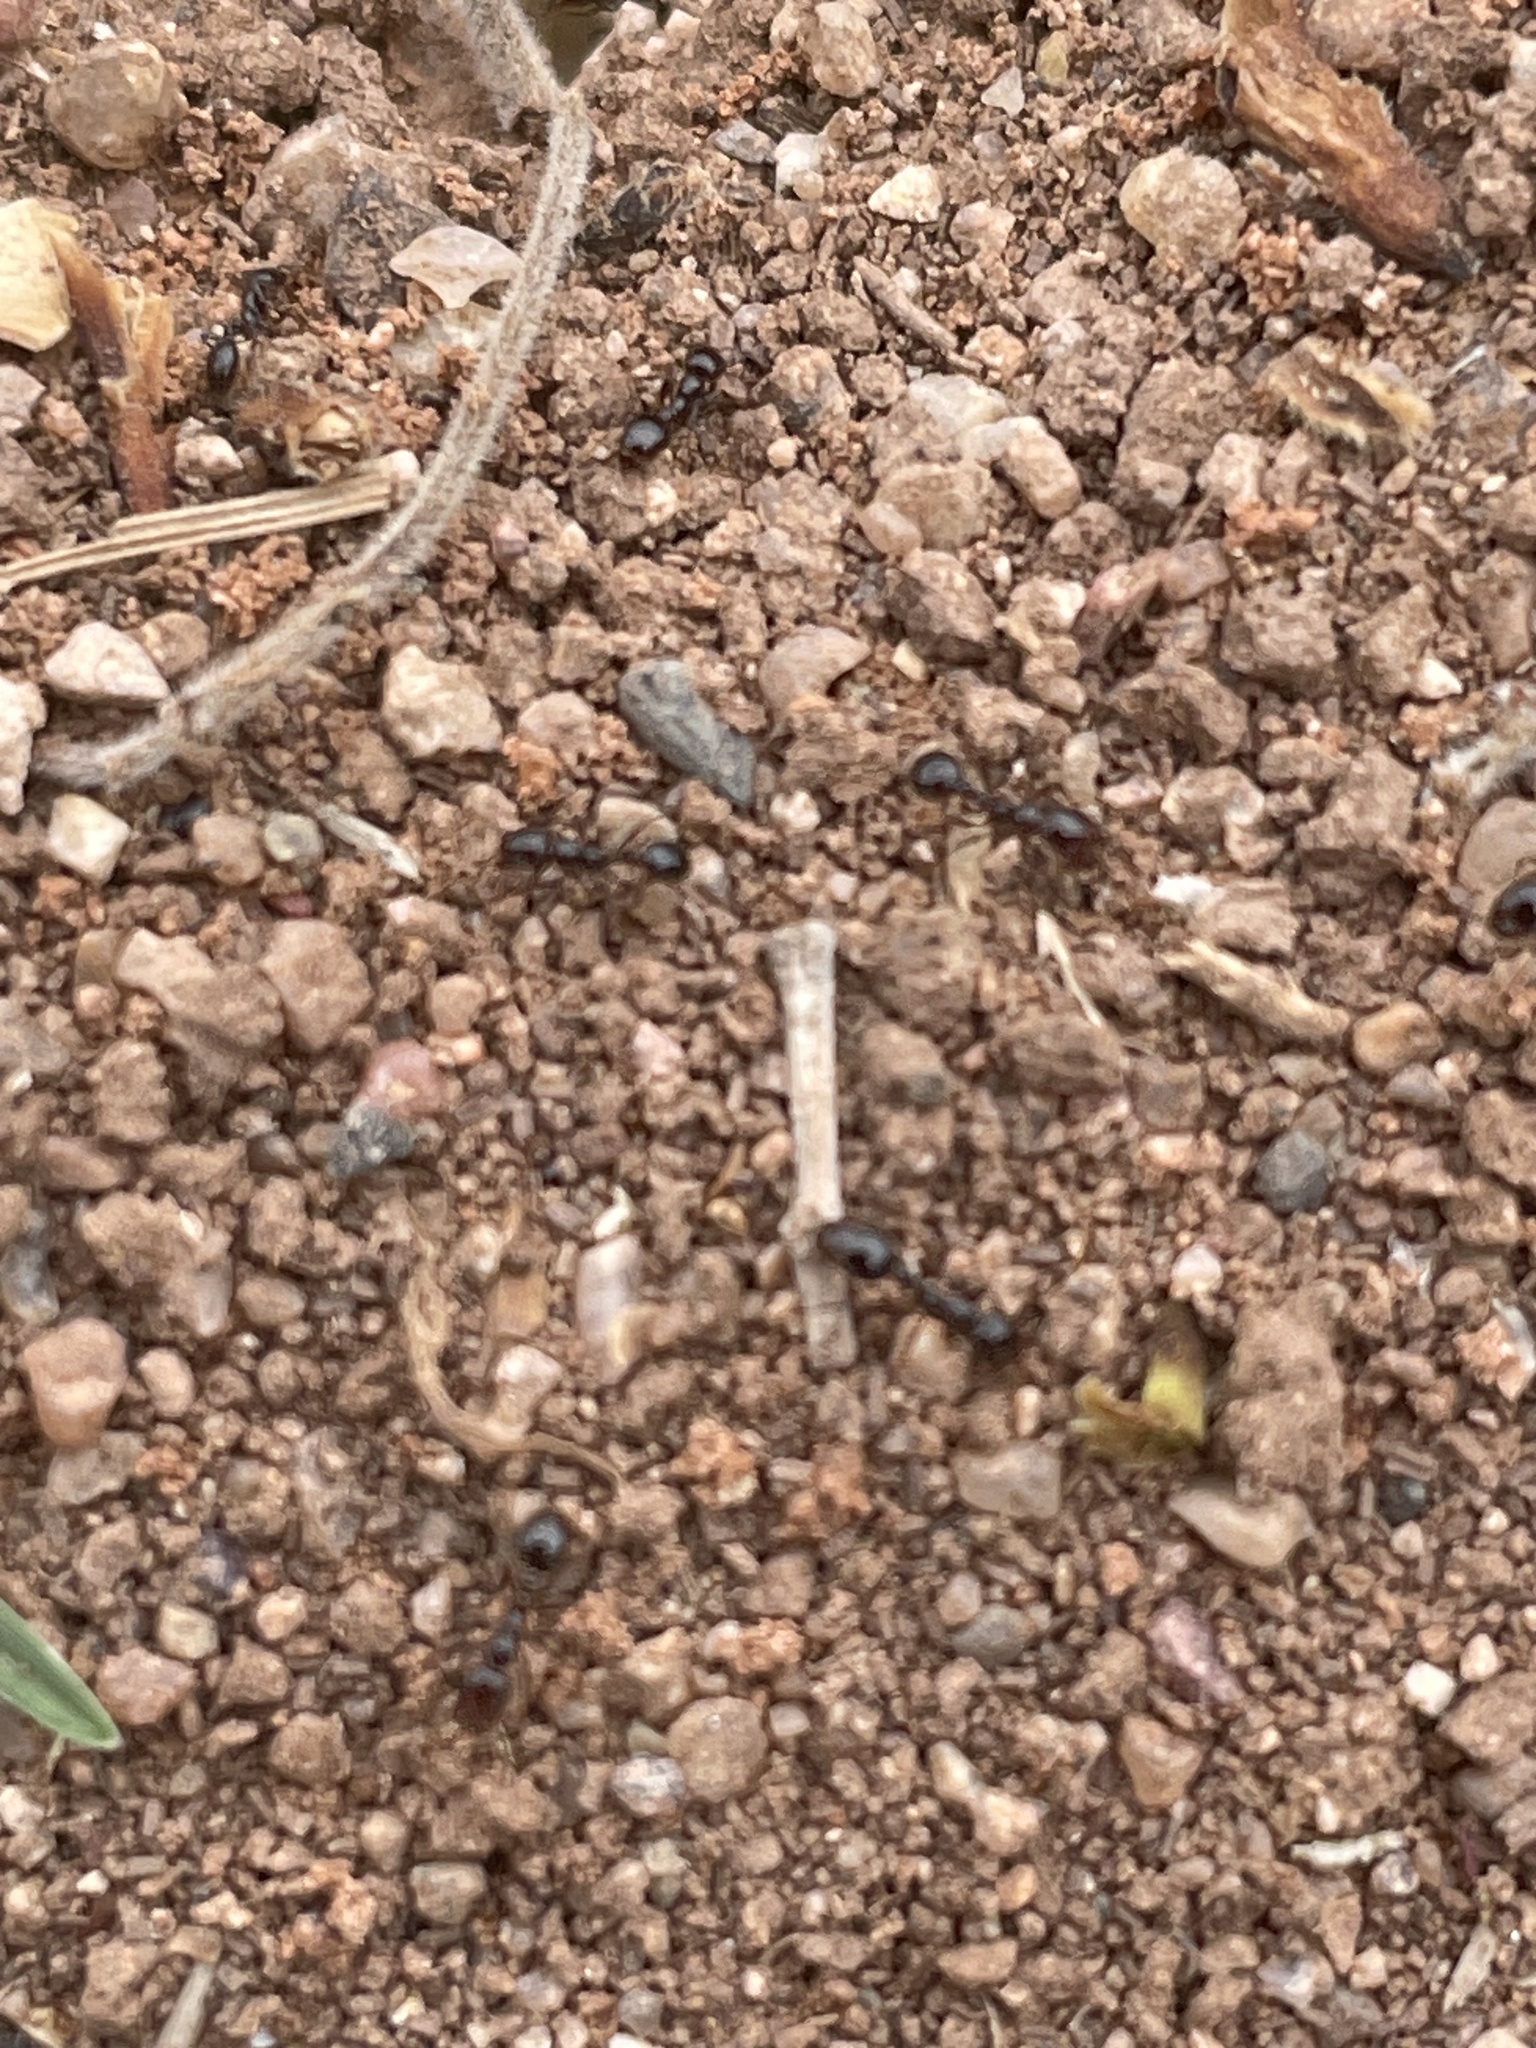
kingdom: Animalia
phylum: Arthropoda
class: Insecta
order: Hymenoptera
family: Formicidae
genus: Solenopsis
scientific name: Solenopsis xyloni
